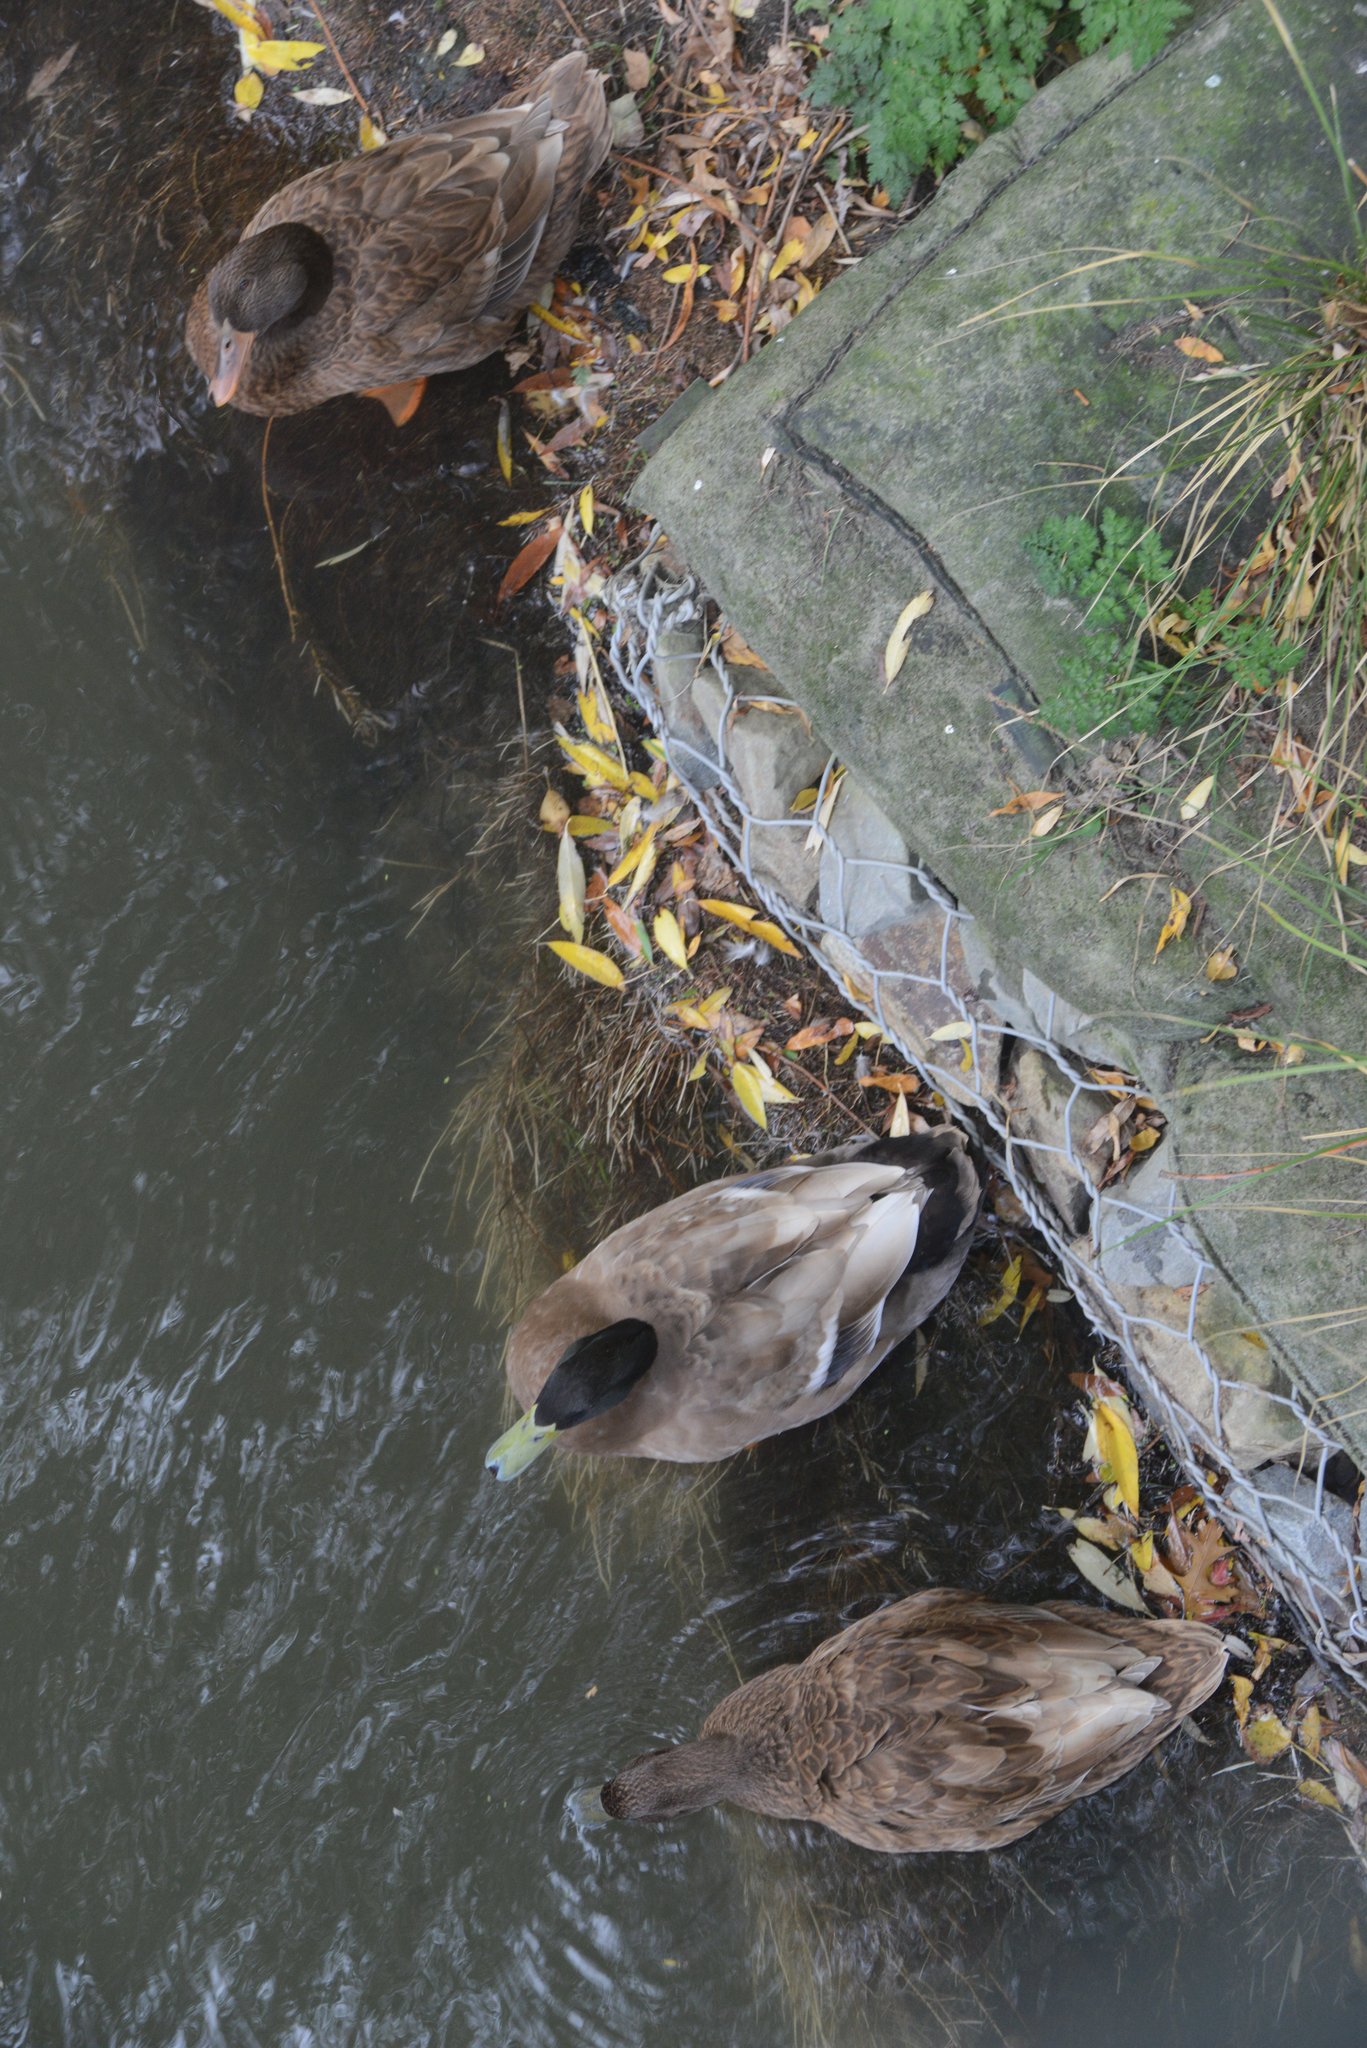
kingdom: Animalia
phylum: Chordata
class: Aves
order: Anseriformes
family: Anatidae
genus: Anas
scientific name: Anas platyrhynchos
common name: Mallard
